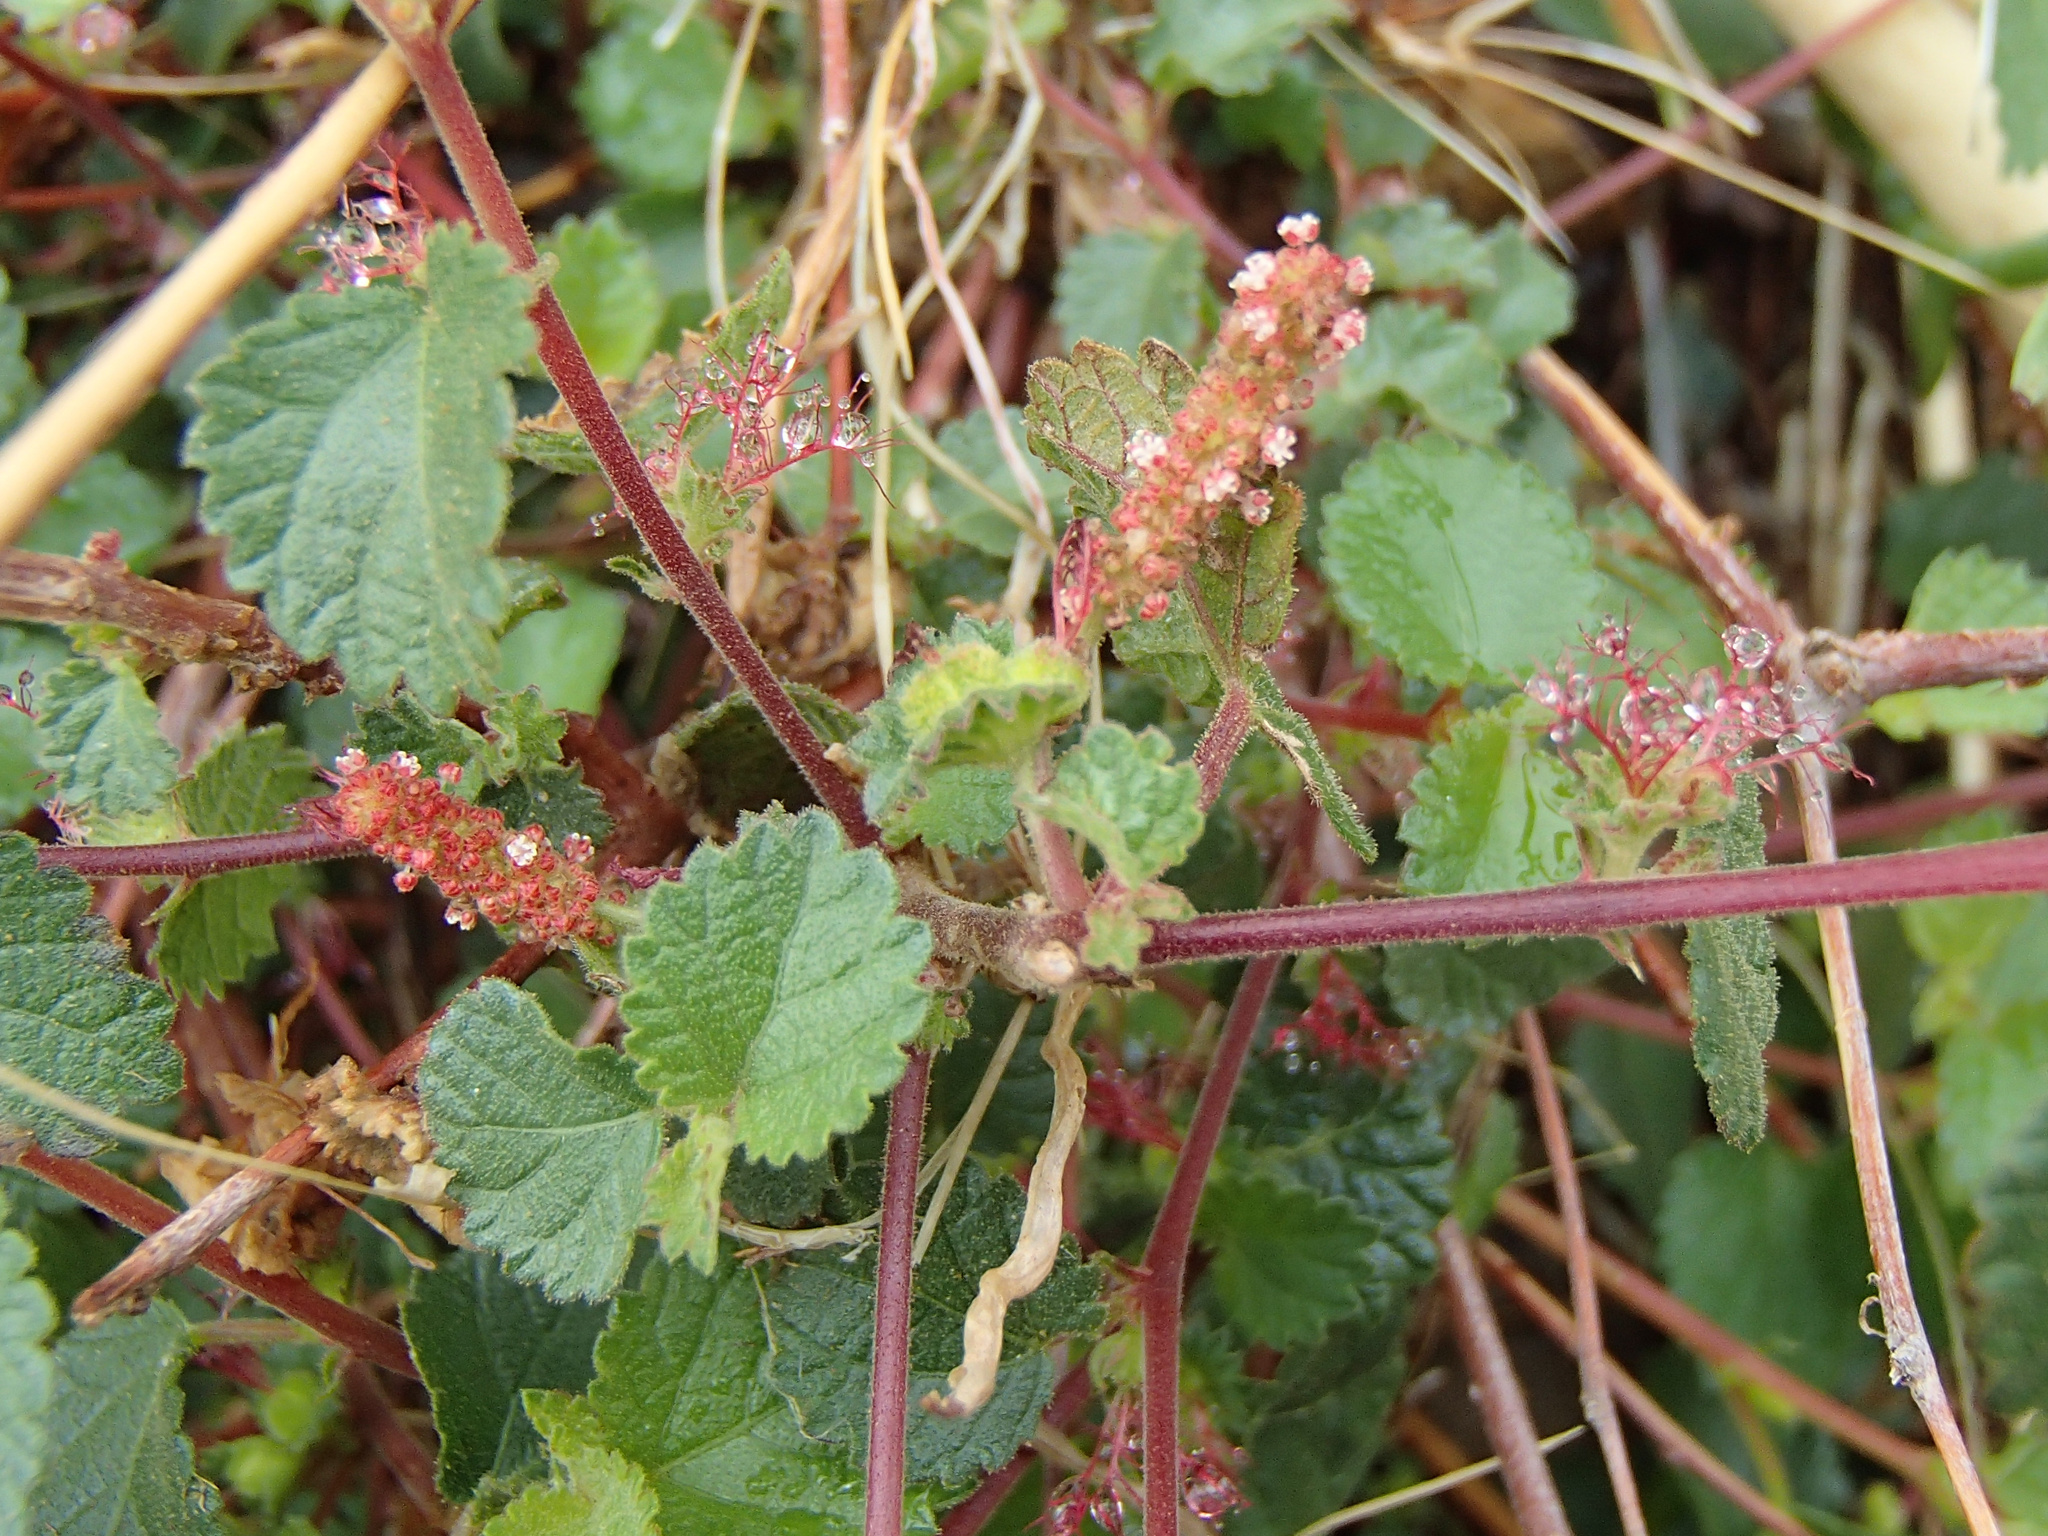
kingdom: Plantae
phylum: Tracheophyta
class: Magnoliopsida
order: Malpighiales
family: Euphorbiaceae
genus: Acalypha
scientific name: Acalypha californica
